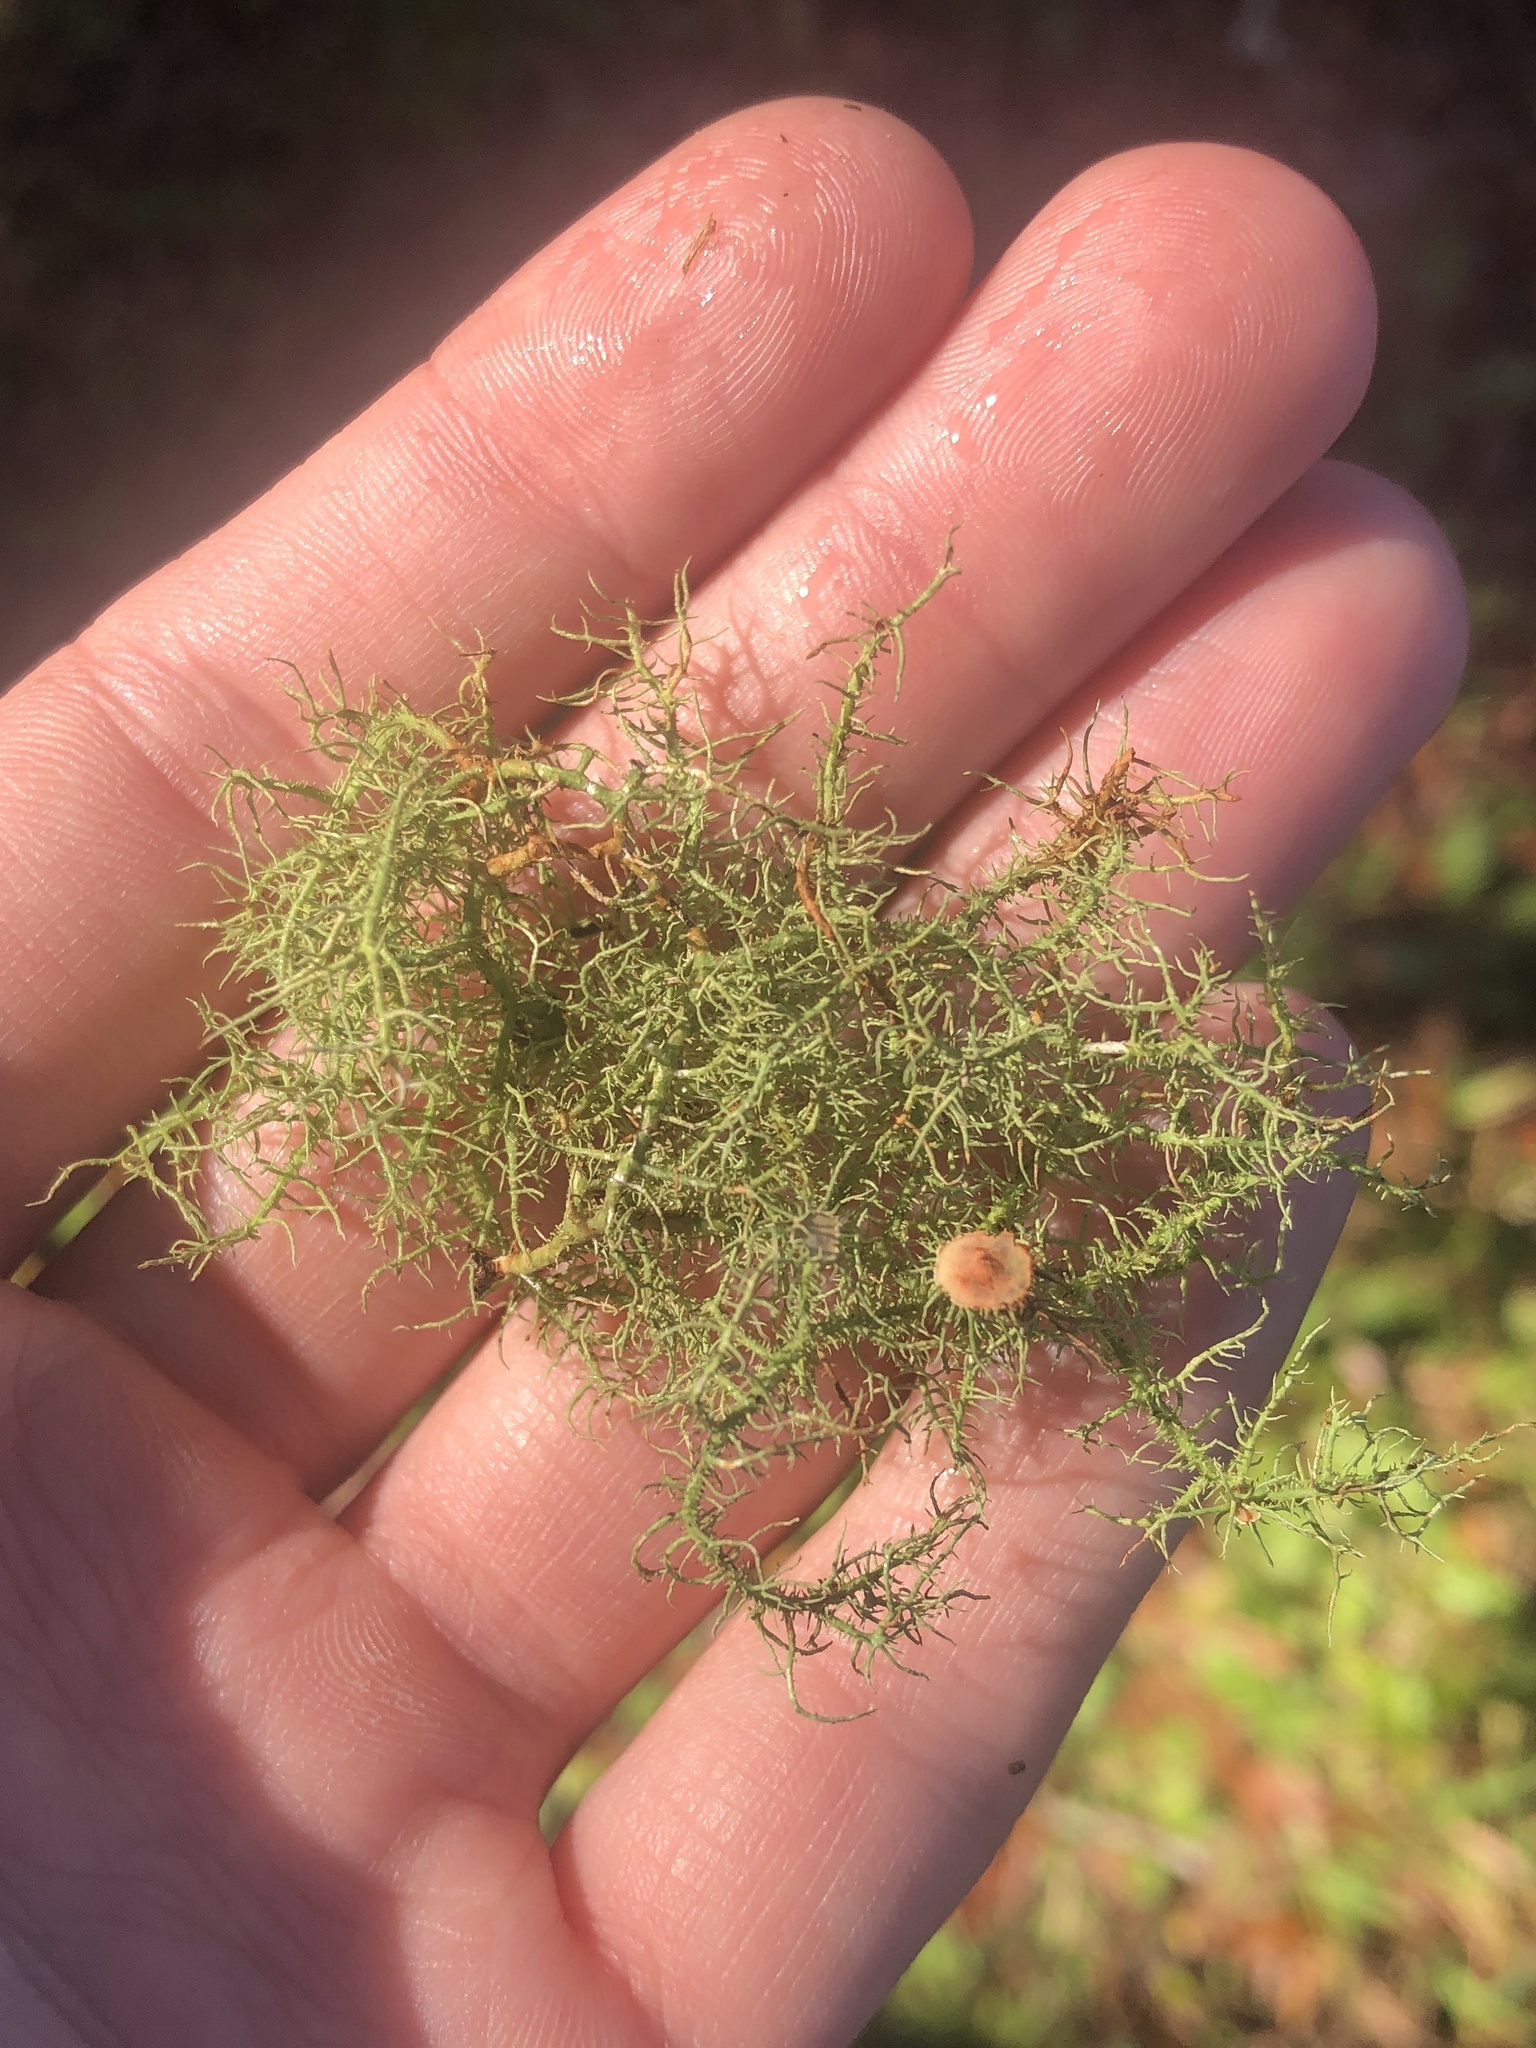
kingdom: Fungi
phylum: Ascomycota
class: Lecanoromycetes
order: Lecanorales
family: Parmeliaceae
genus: Usnea
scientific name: Usnea strigosa
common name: Bushy beard lichen
